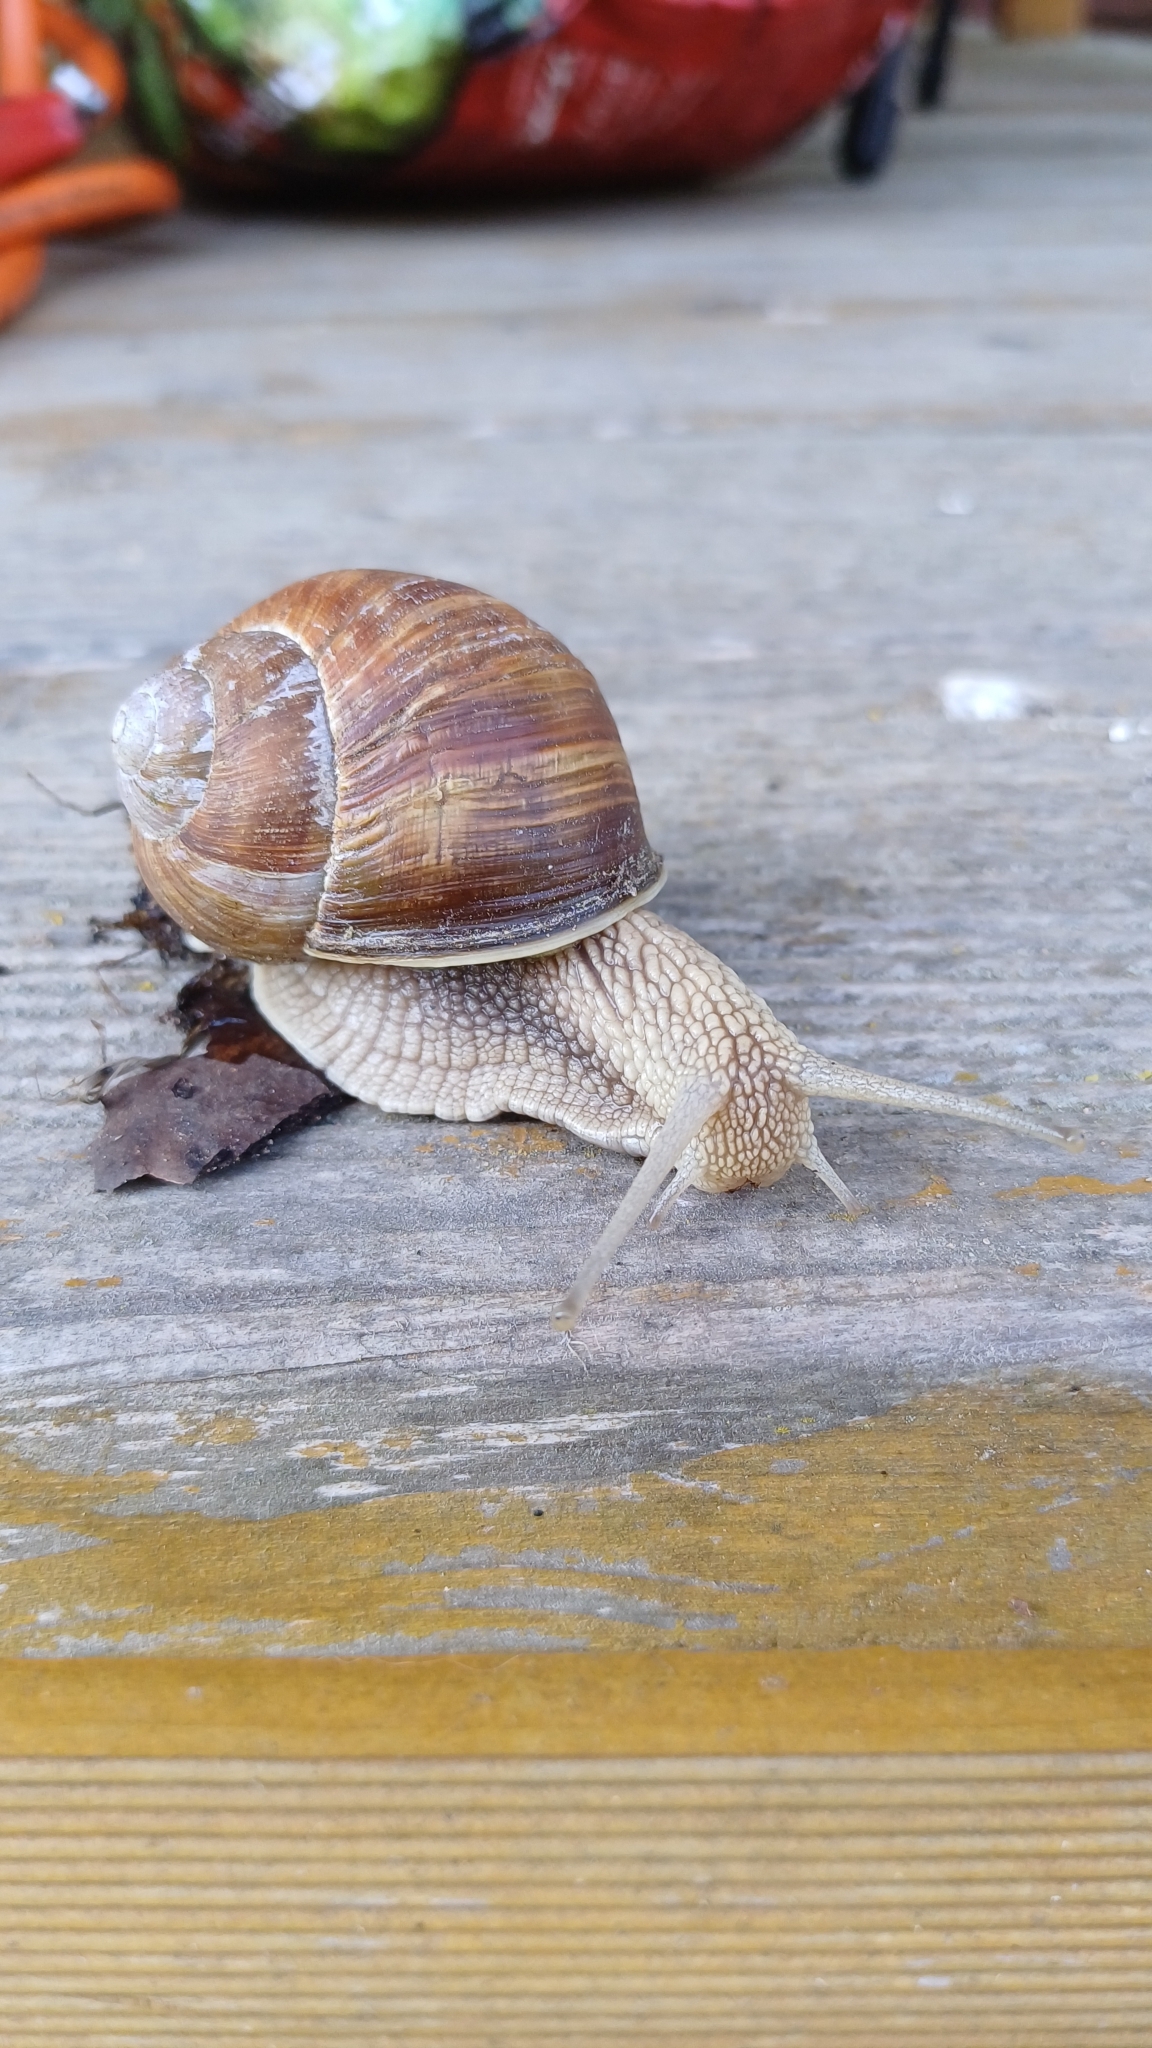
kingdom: Animalia
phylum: Mollusca
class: Gastropoda
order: Stylommatophora
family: Helicidae
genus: Helix
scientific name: Helix pomatia
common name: Roman snail
